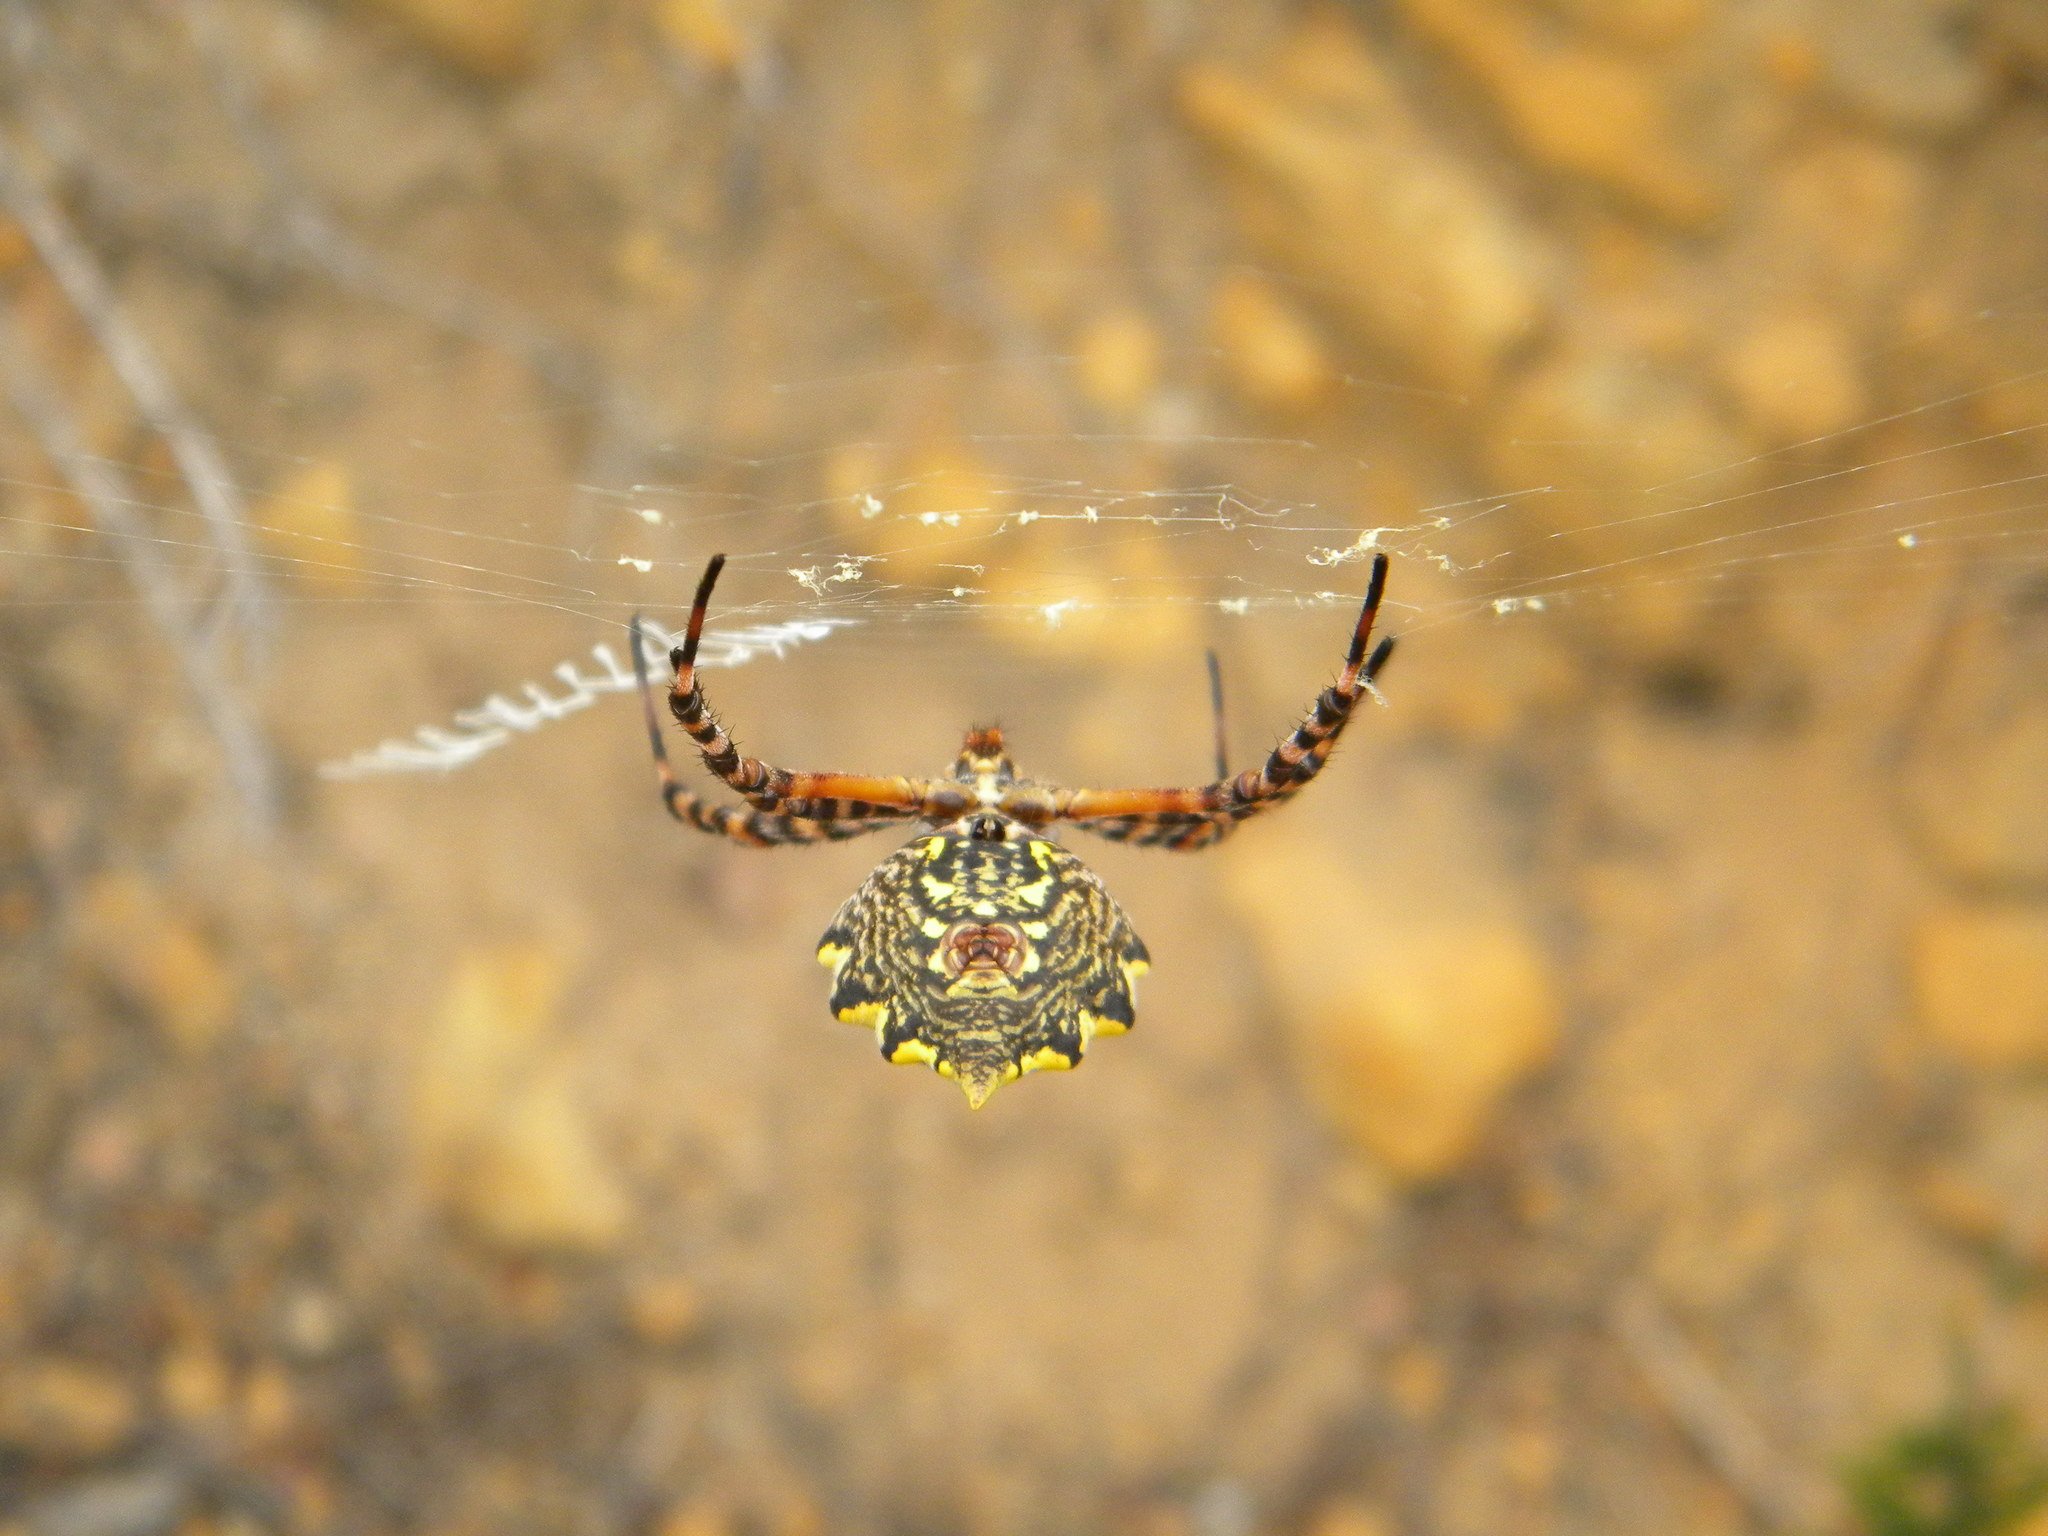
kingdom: Animalia
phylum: Arthropoda
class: Arachnida
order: Araneae
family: Araneidae
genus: Argiope
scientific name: Argiope australis
